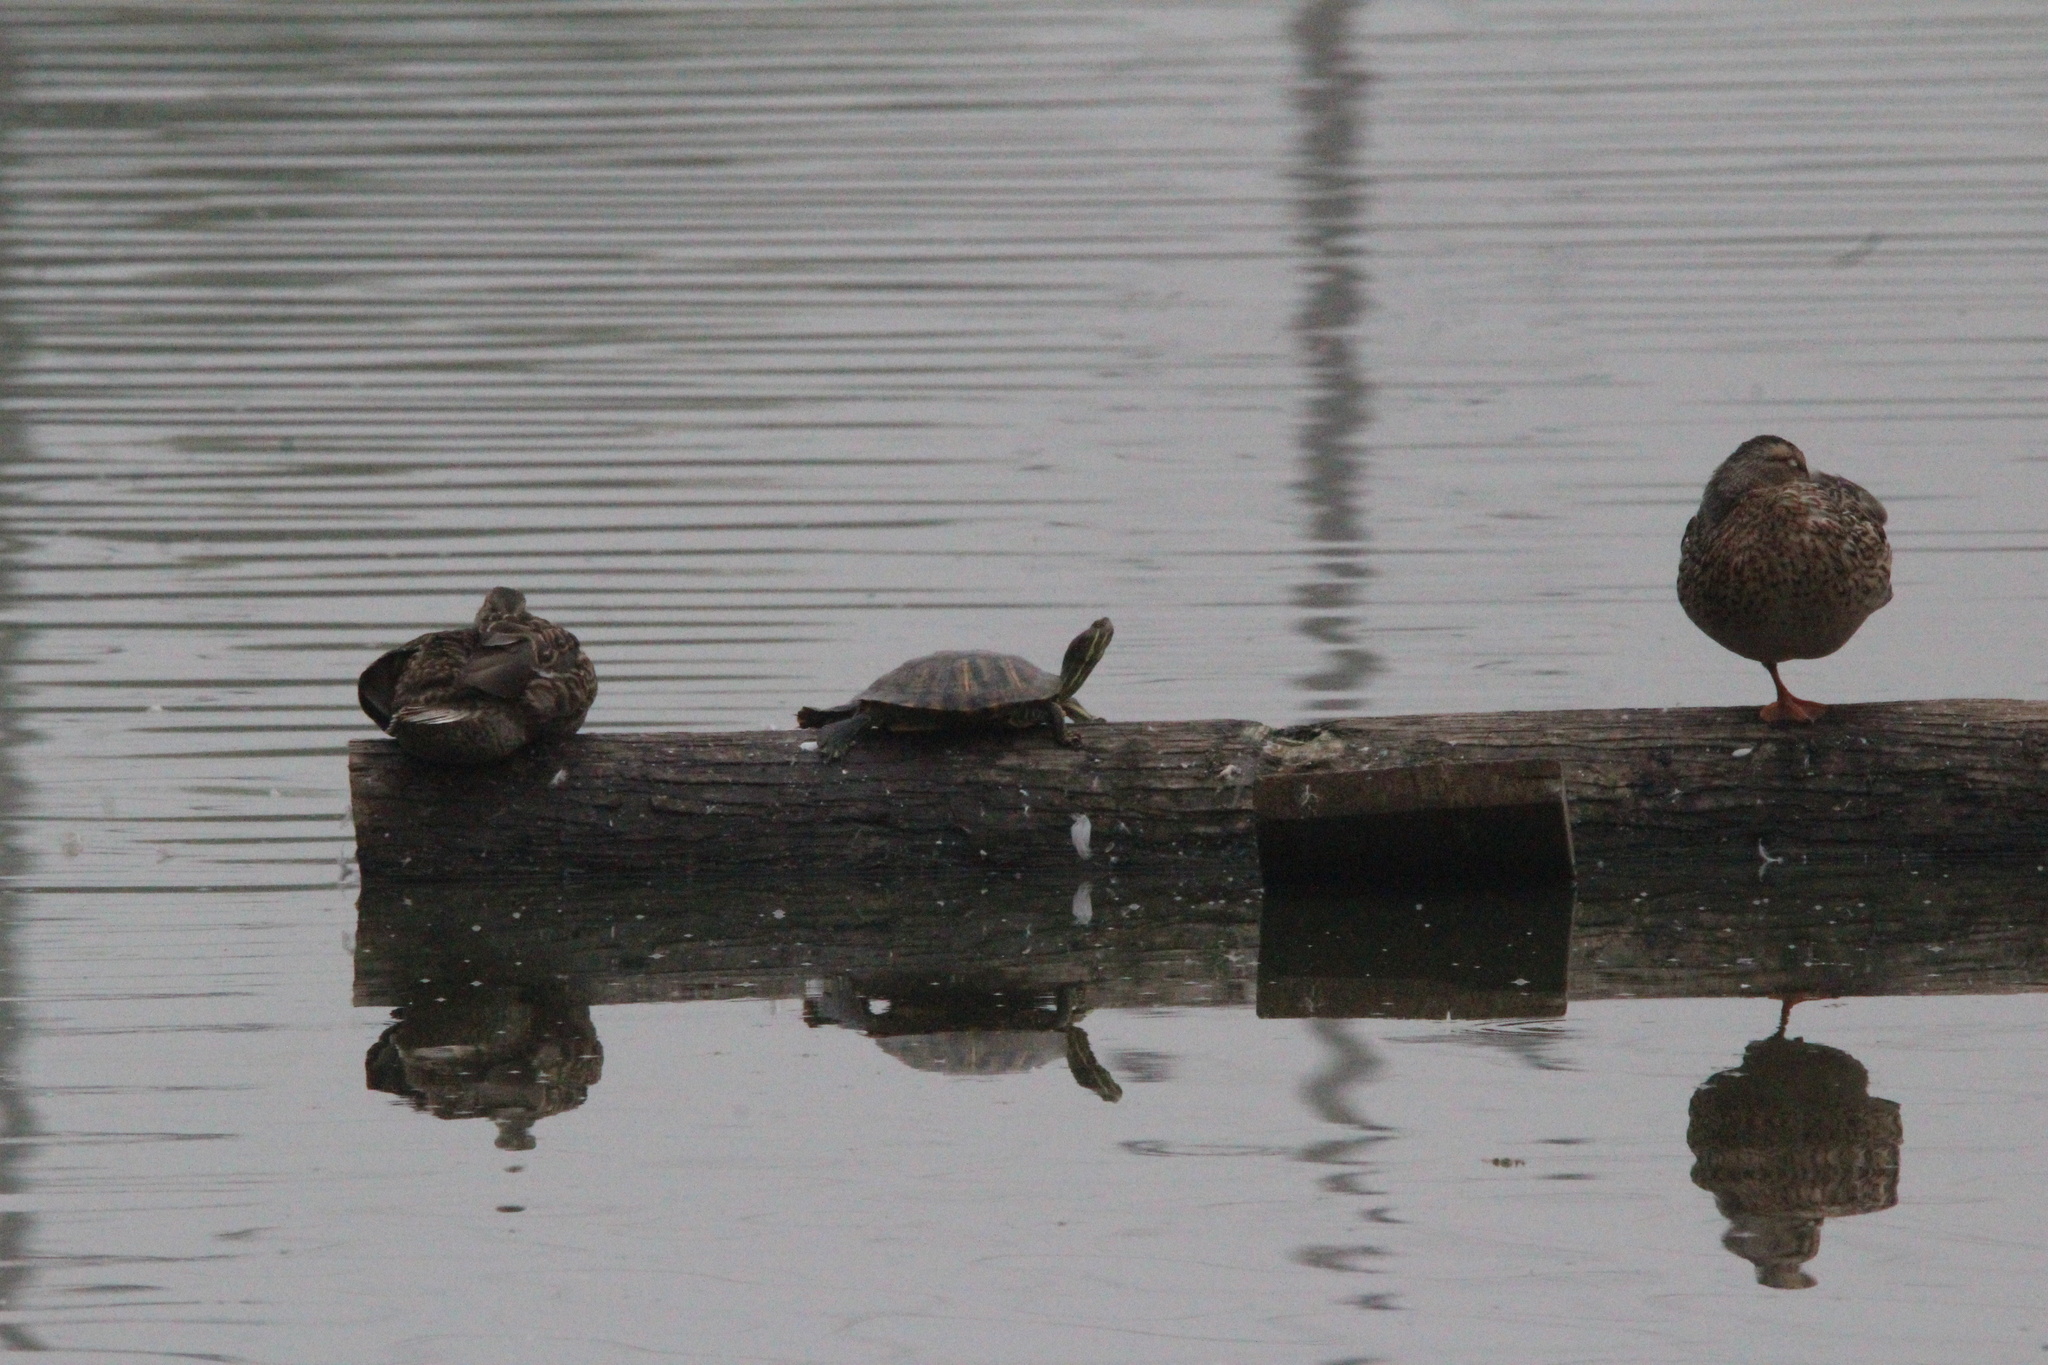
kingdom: Animalia
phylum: Chordata
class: Aves
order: Anseriformes
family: Anatidae
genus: Anas
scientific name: Anas platyrhynchos
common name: Mallard
